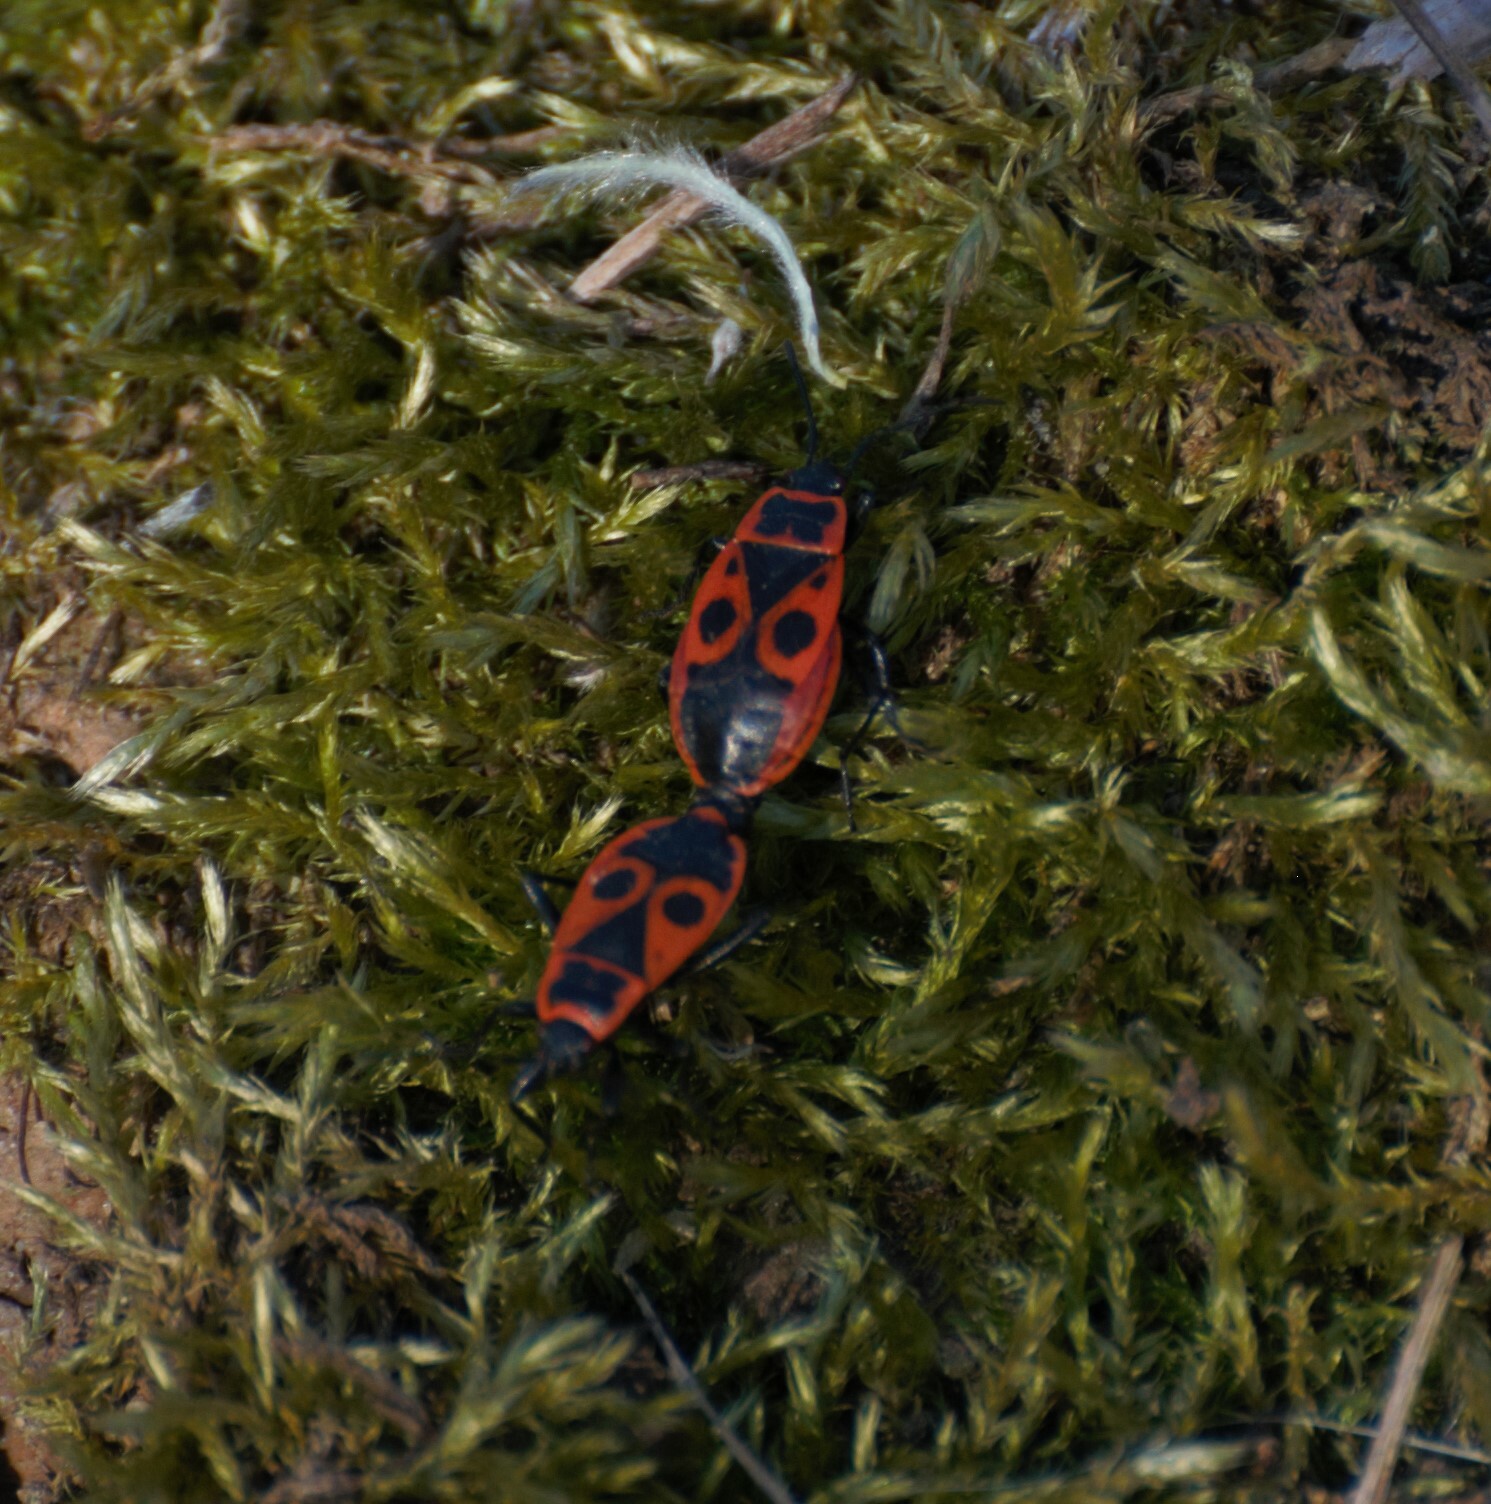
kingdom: Animalia
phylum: Arthropoda
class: Insecta
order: Hemiptera
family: Pyrrhocoridae
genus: Pyrrhocoris
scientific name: Pyrrhocoris apterus
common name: Firebug
